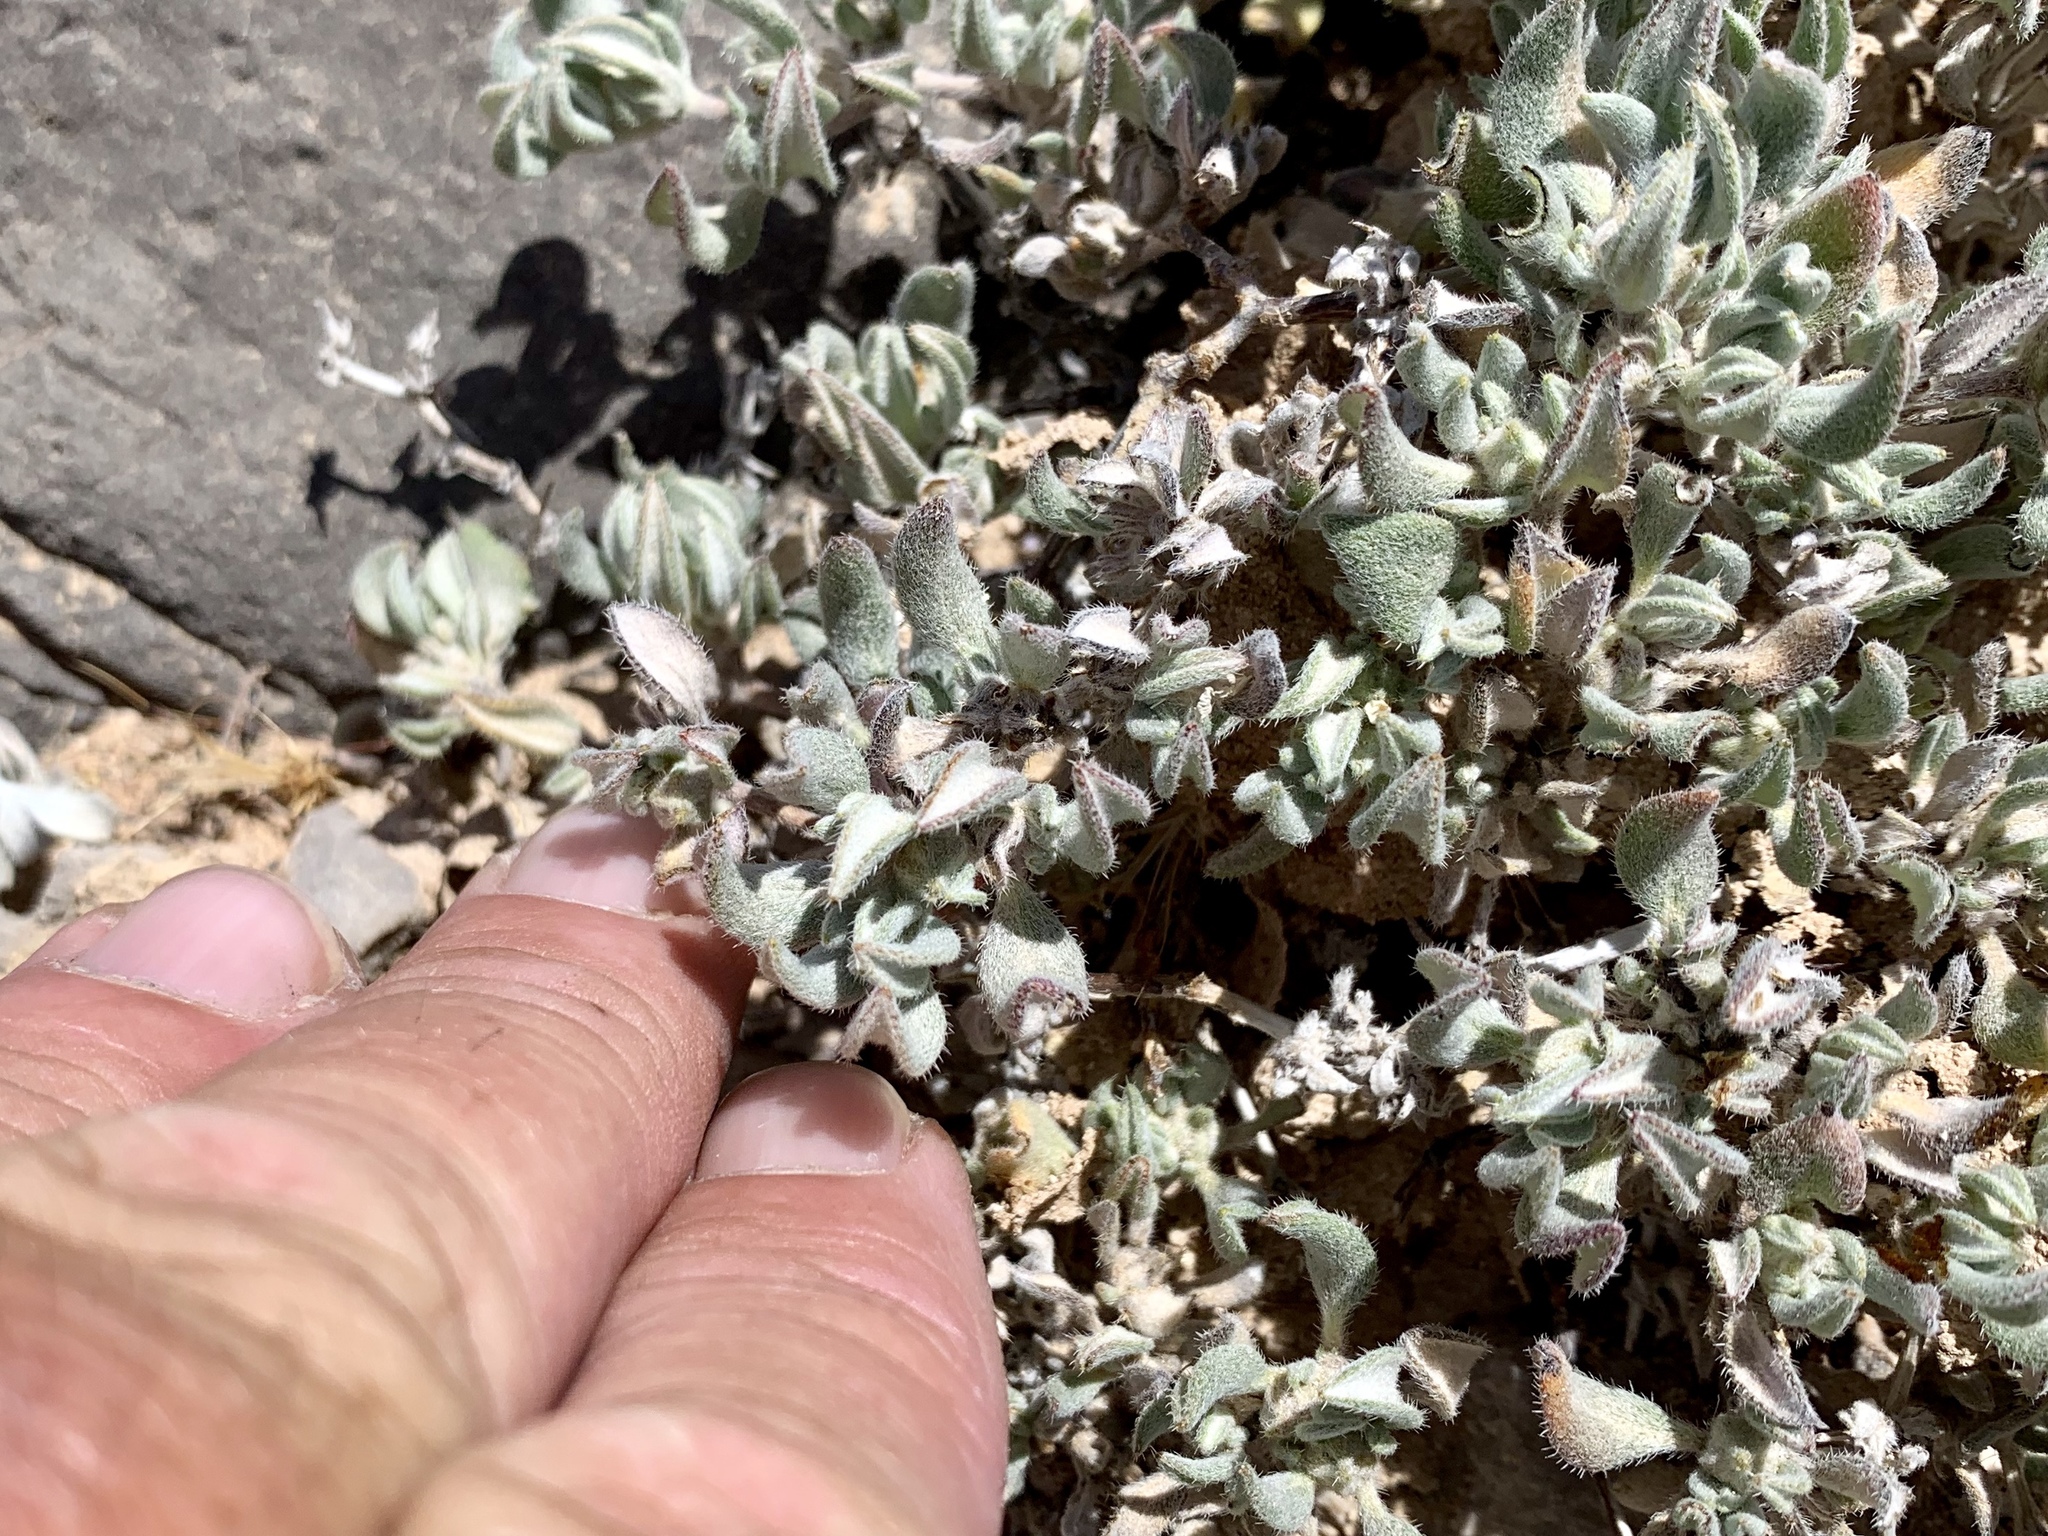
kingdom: Plantae
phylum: Tracheophyta
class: Magnoliopsida
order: Boraginales
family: Ehretiaceae
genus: Tiquilia
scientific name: Tiquilia canescens
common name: Hairy tiquilia
